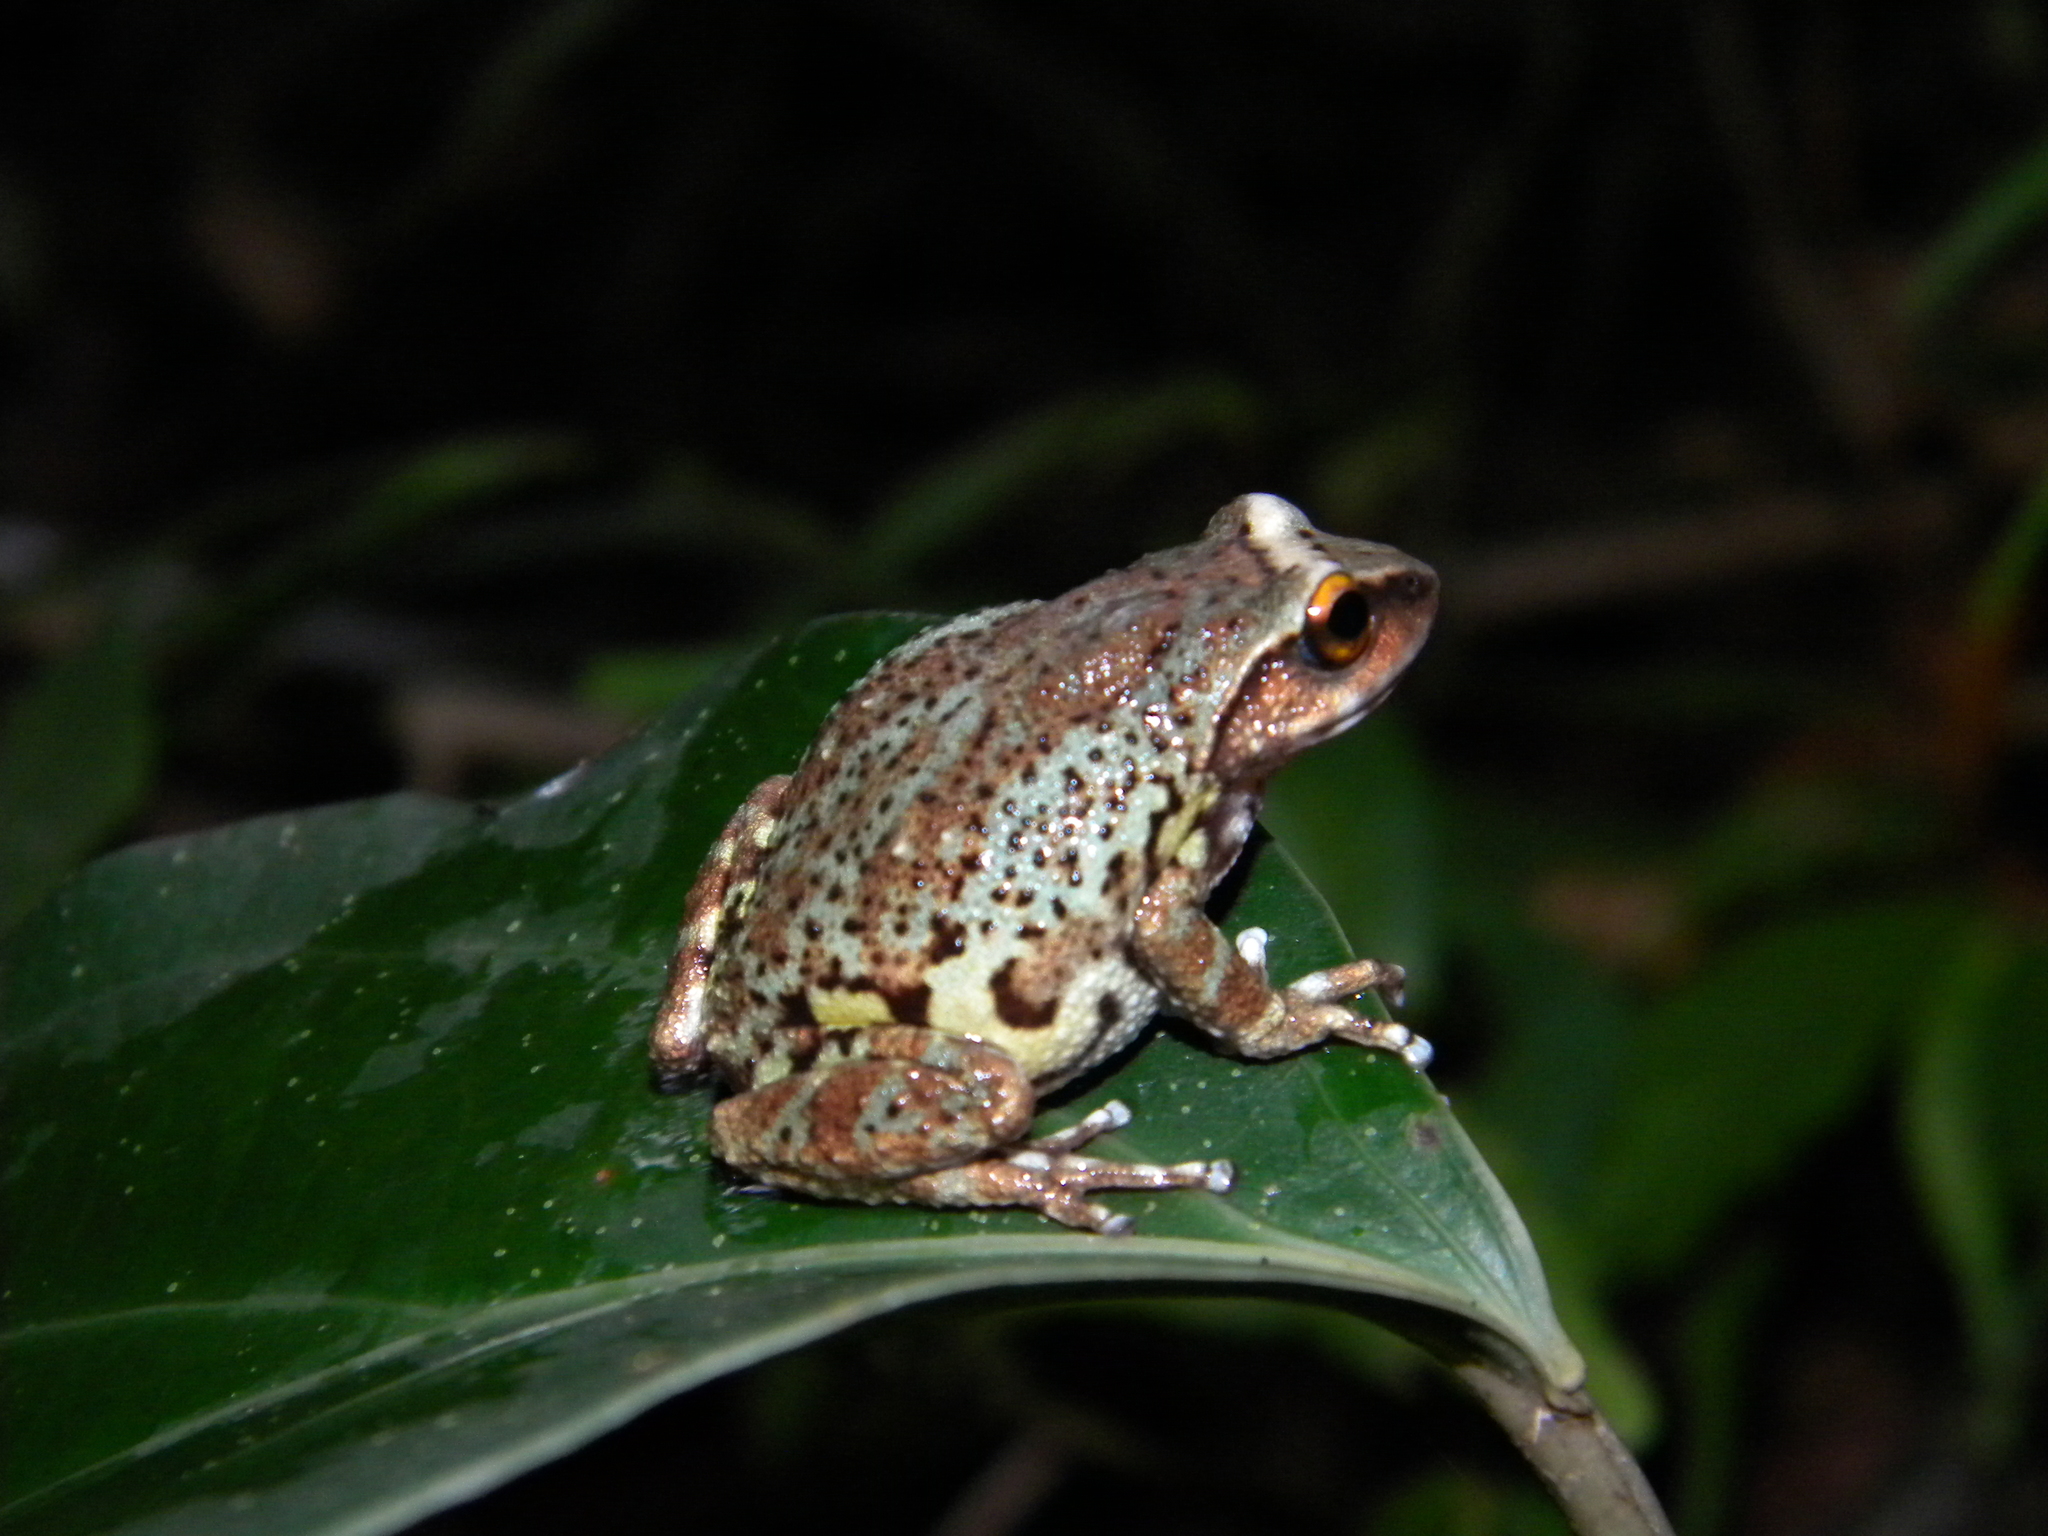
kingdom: Animalia
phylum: Chordata
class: Amphibia
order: Anura
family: Rhacophoridae
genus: Raorchestes
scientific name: Raorchestes dubois
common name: Koadaikanal bush frog
